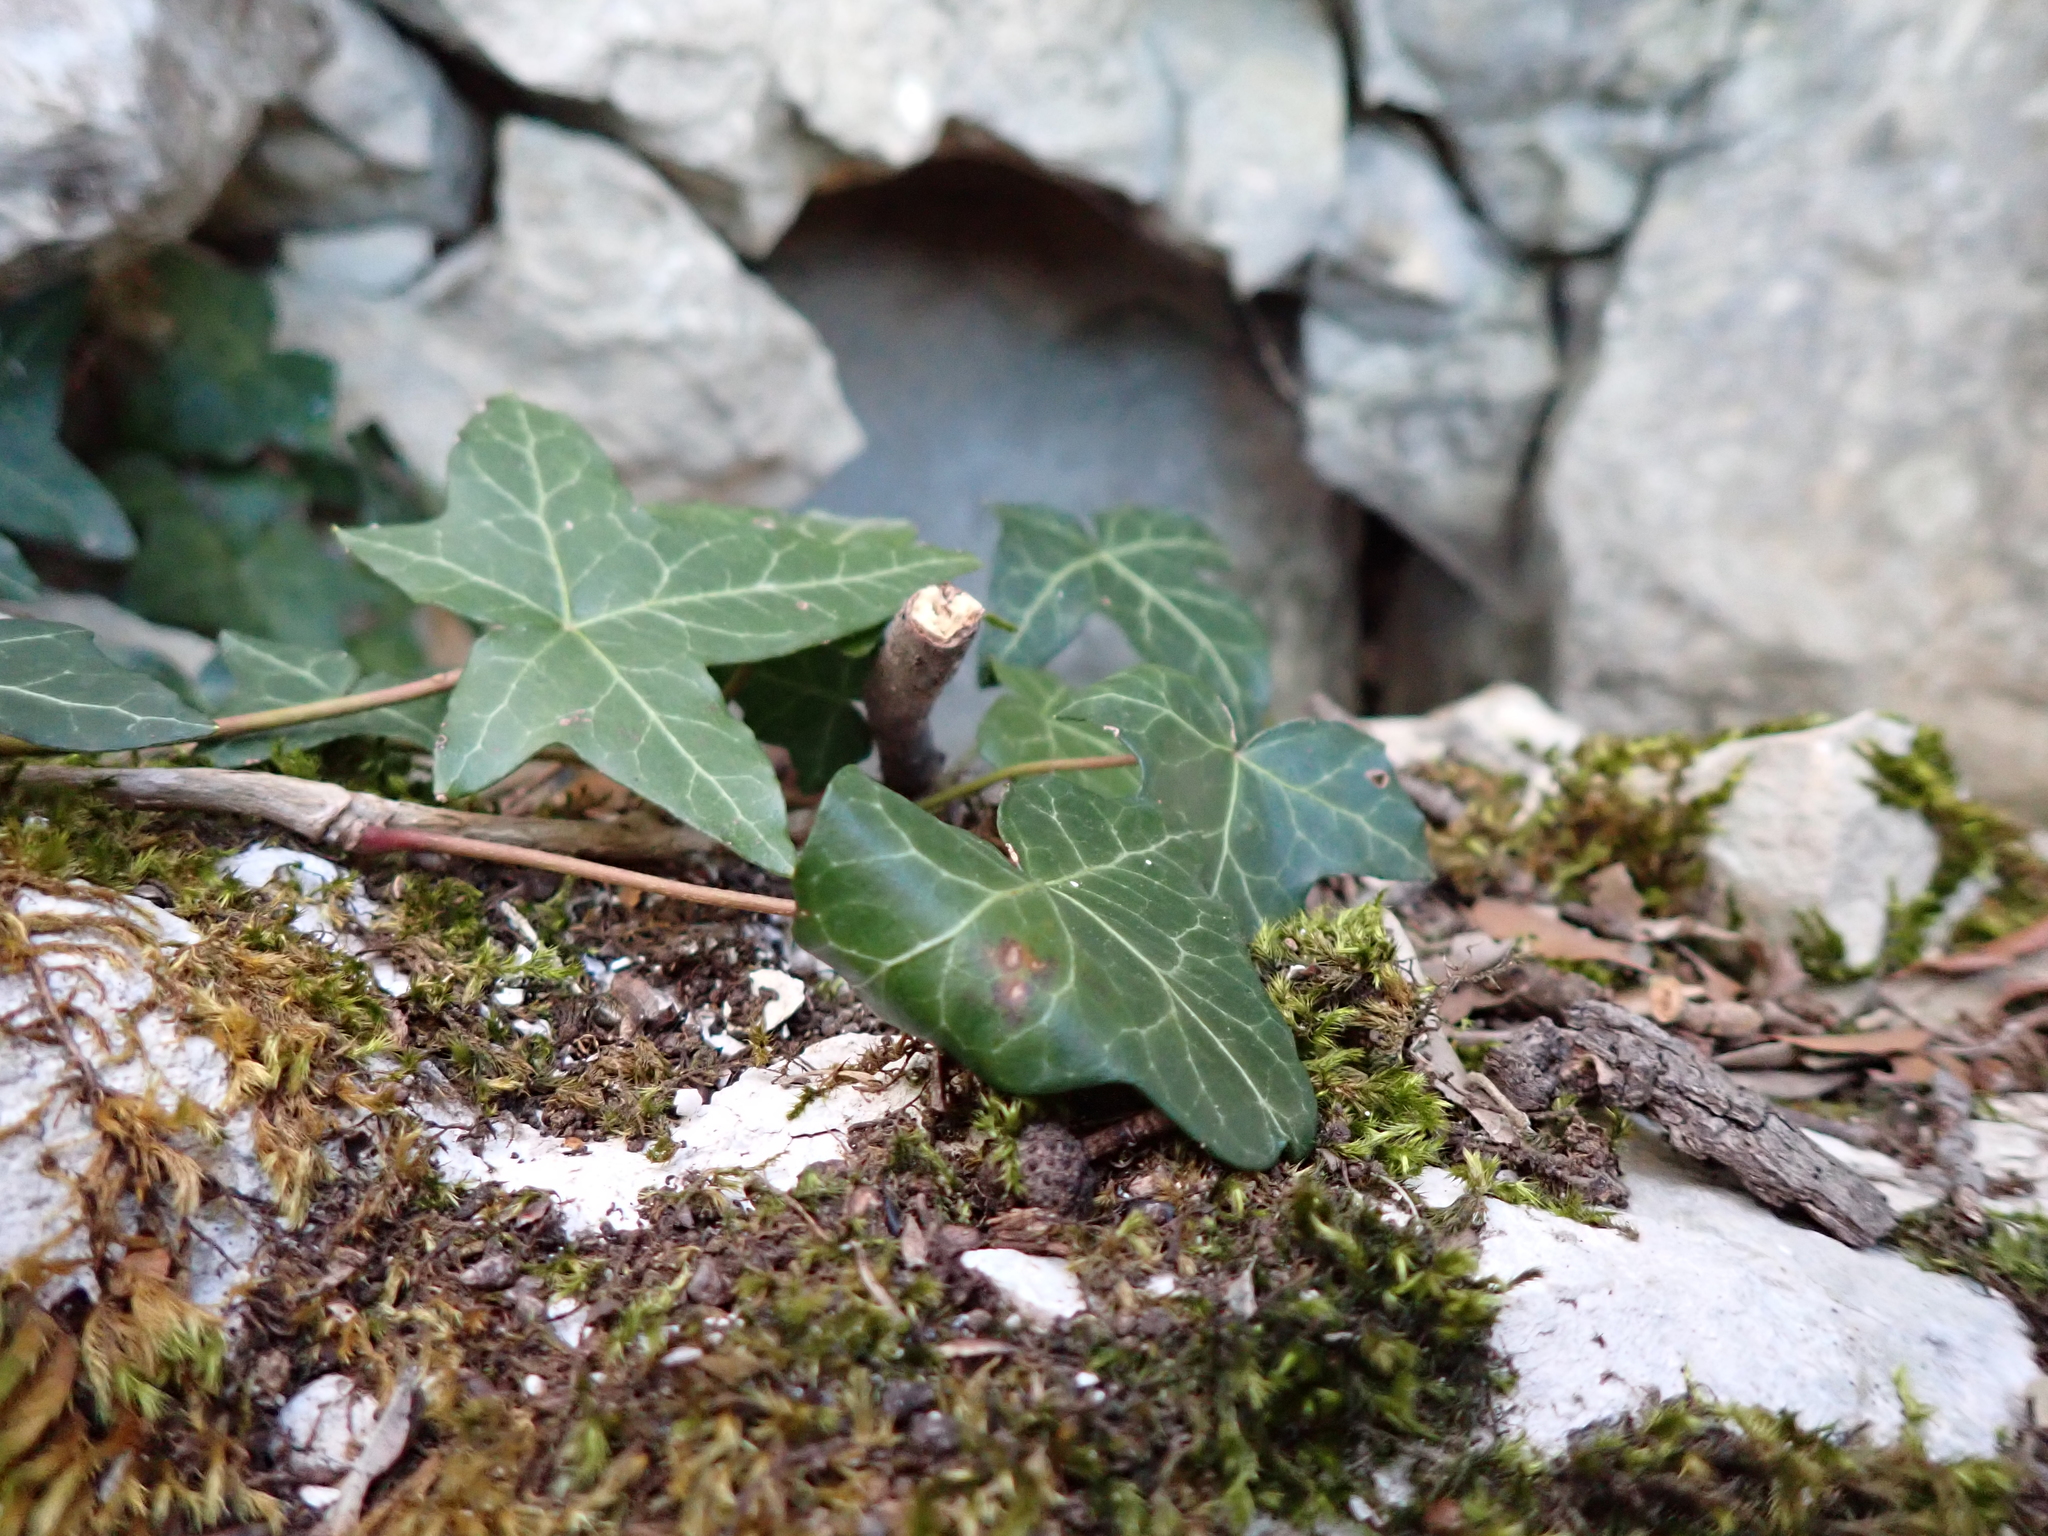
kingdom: Plantae
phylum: Tracheophyta
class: Magnoliopsida
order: Apiales
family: Araliaceae
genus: Hedera
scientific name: Hedera helix
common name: Ivy
